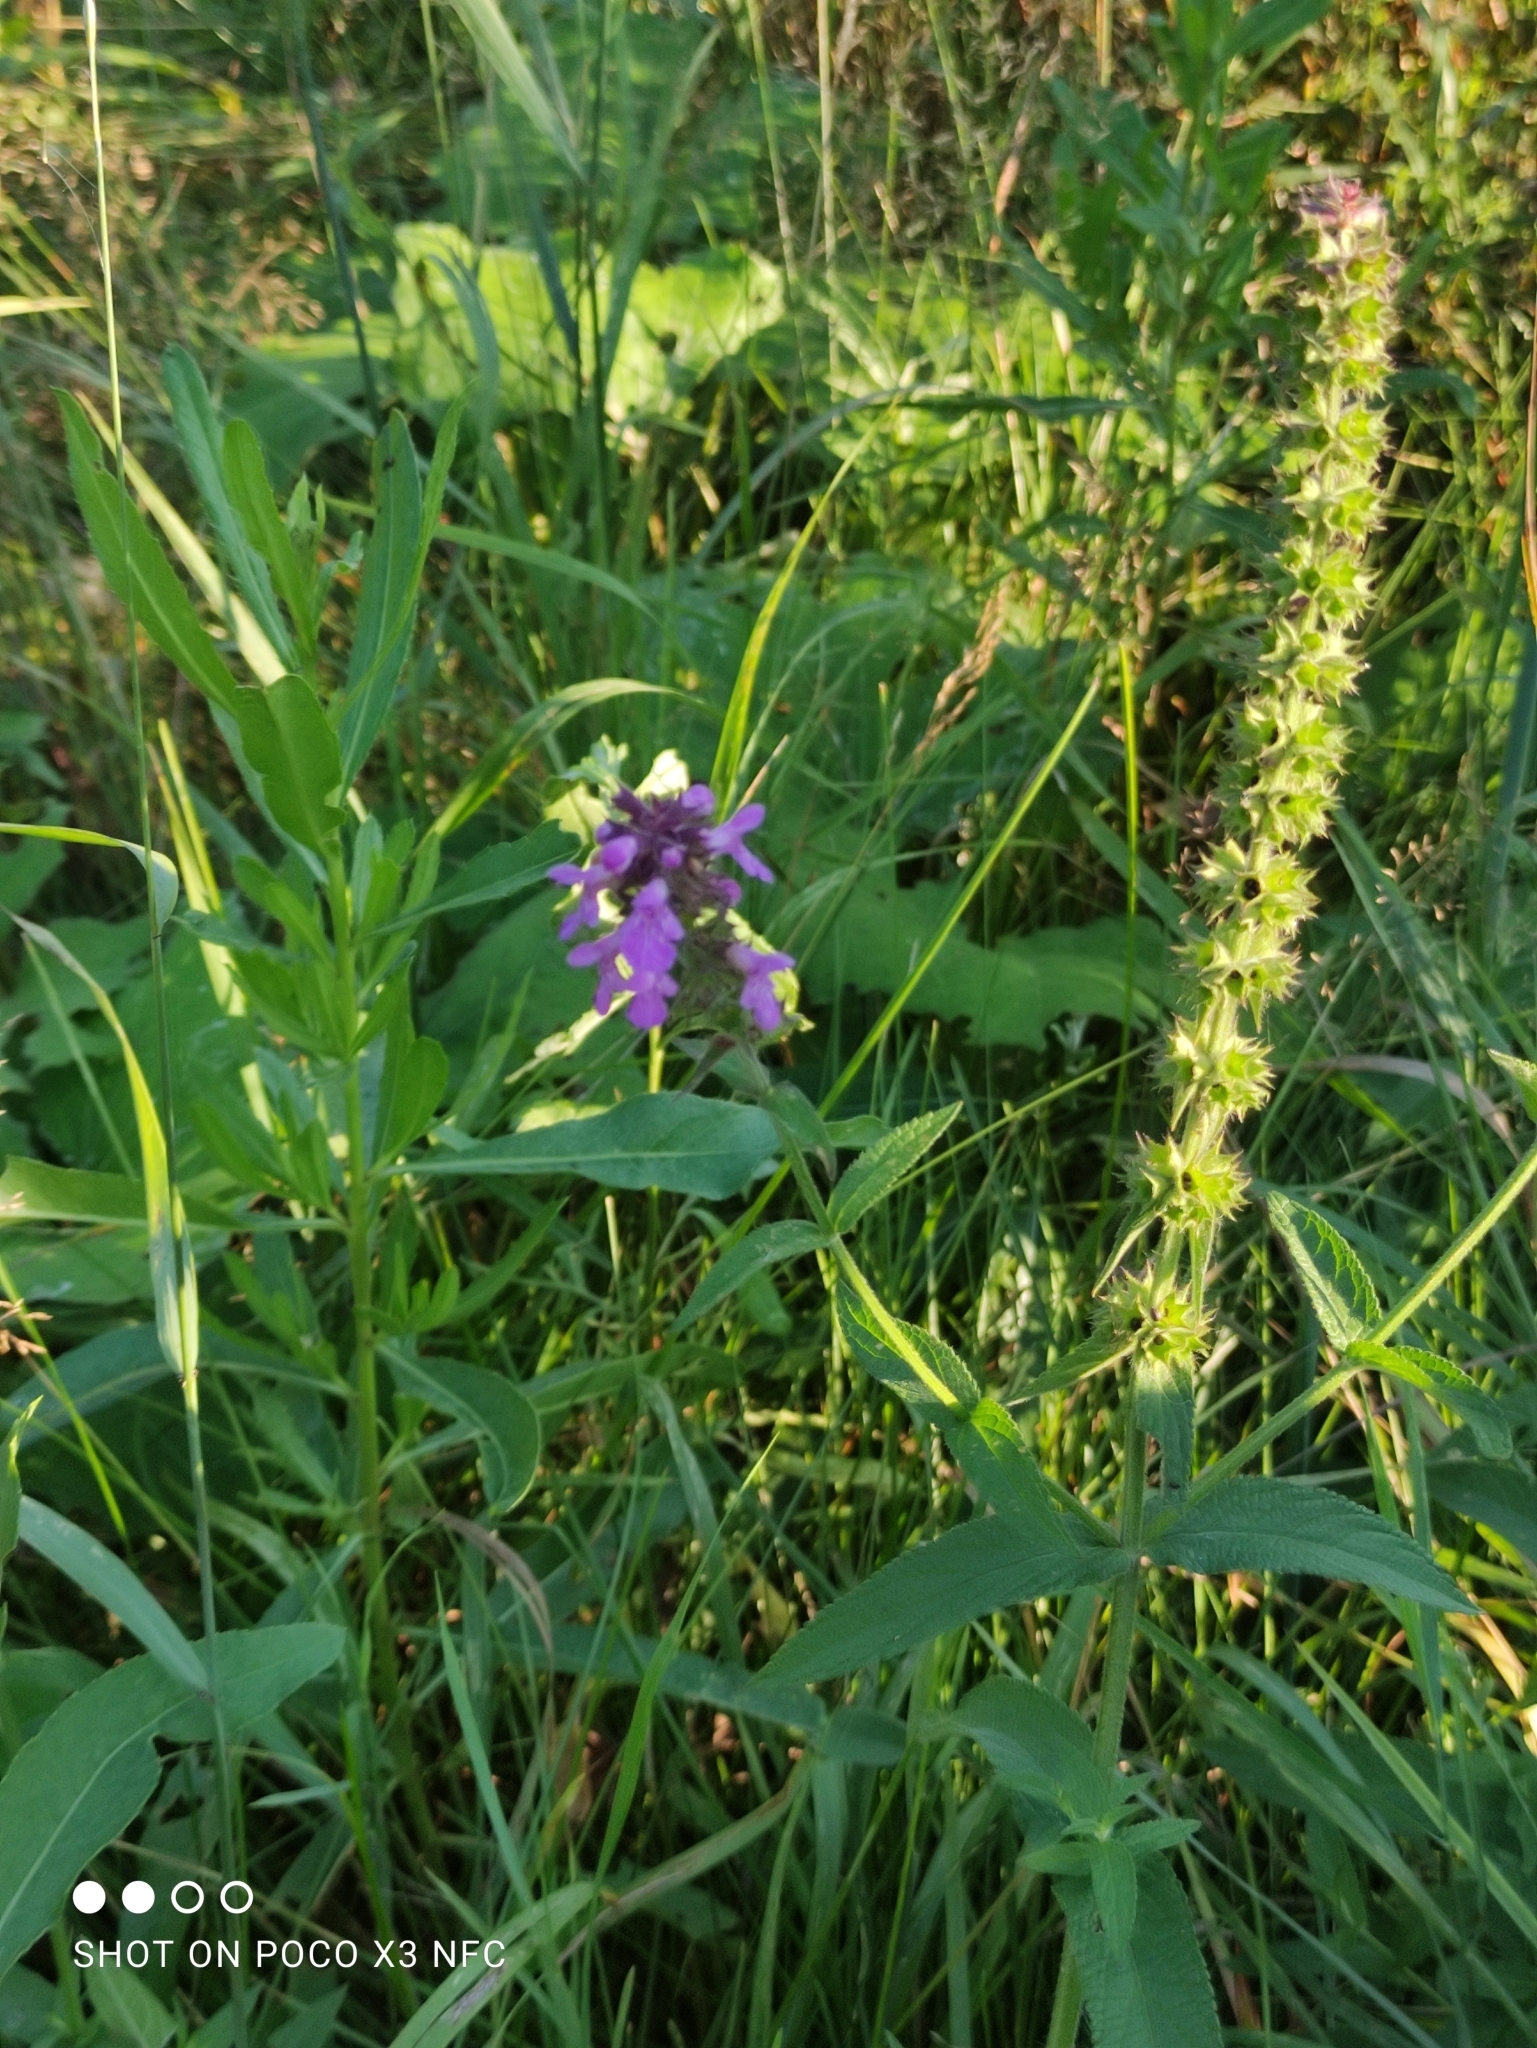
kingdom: Plantae
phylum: Tracheophyta
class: Magnoliopsida
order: Lamiales
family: Lamiaceae
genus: Stachys
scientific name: Stachys palustris
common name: Marsh woundwort
